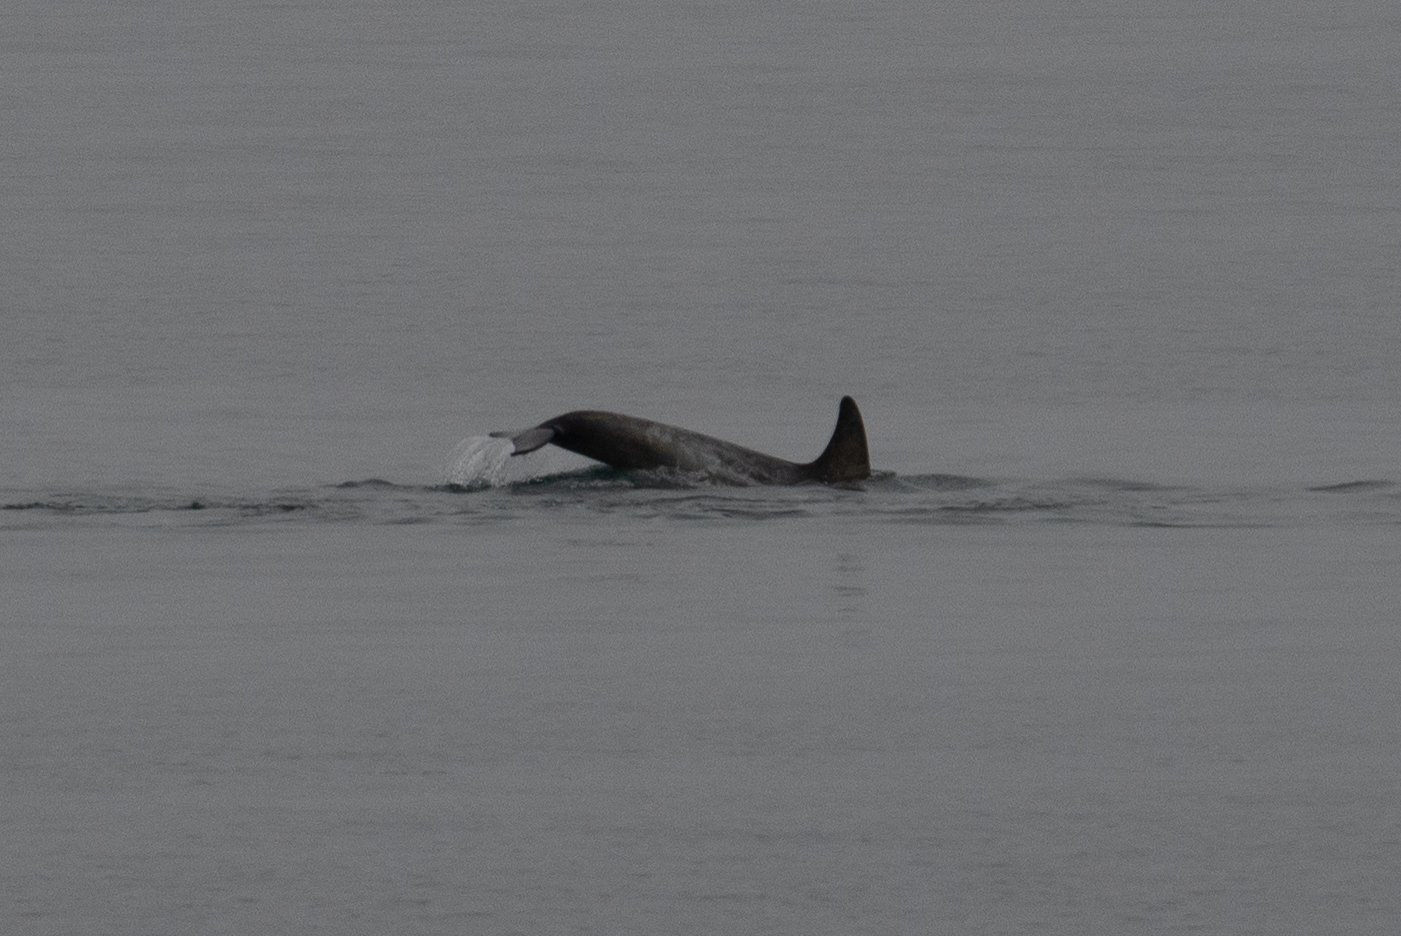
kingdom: Animalia
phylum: Chordata
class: Mammalia
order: Cetacea
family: Delphinidae
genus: Grampus
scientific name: Grampus griseus
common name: Risso's dolphin
